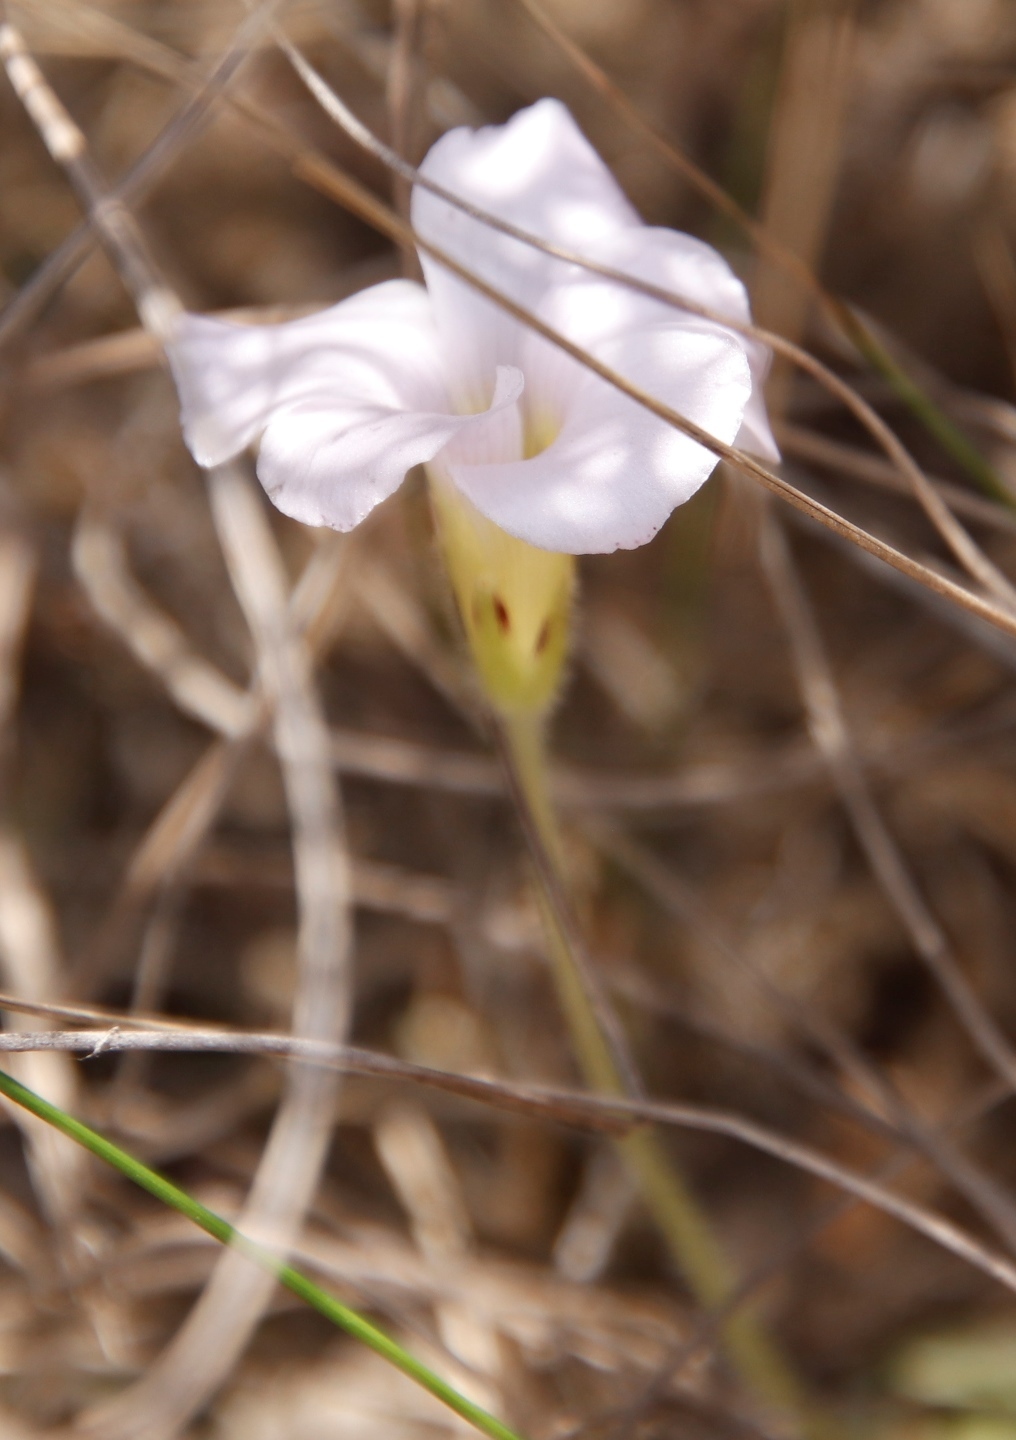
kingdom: Plantae
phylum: Tracheophyta
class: Magnoliopsida
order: Oxalidales
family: Oxalidaceae
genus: Oxalis
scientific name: Oxalis algoensis
